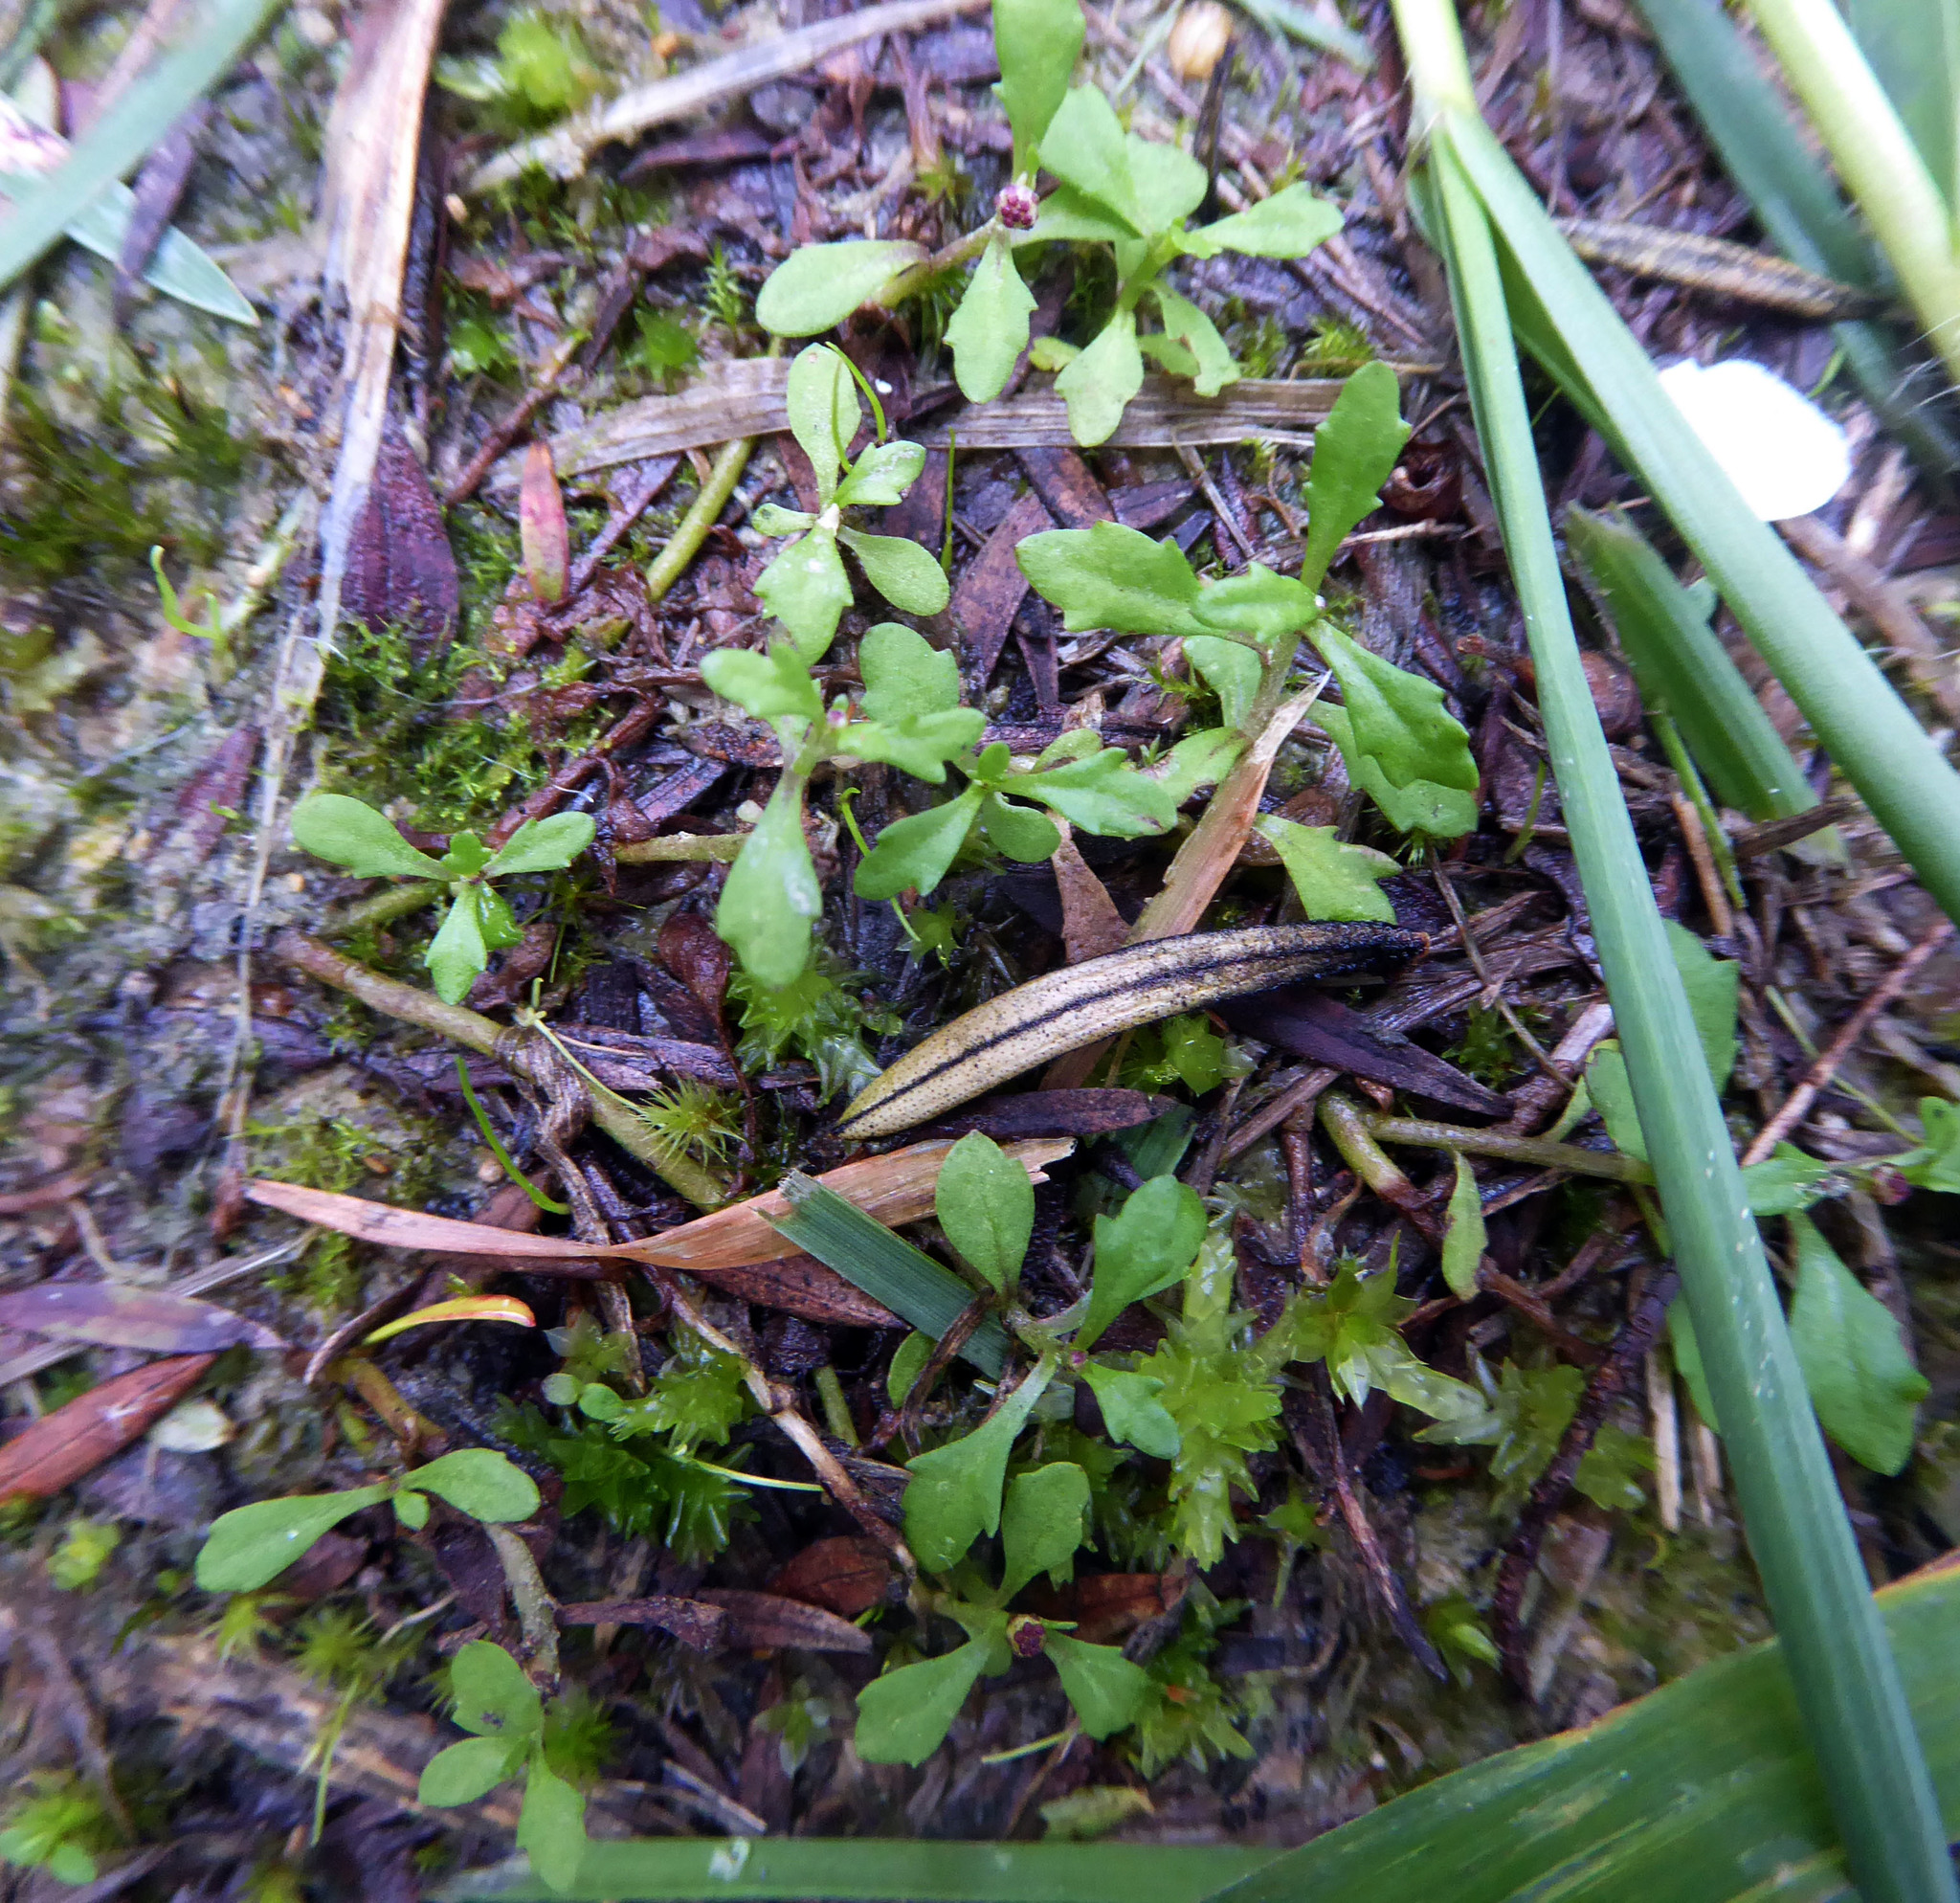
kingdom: Plantae
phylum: Tracheophyta
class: Magnoliopsida
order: Asterales
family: Asteraceae
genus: Centipeda
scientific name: Centipeda minima
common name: Spreading sneezeweed
